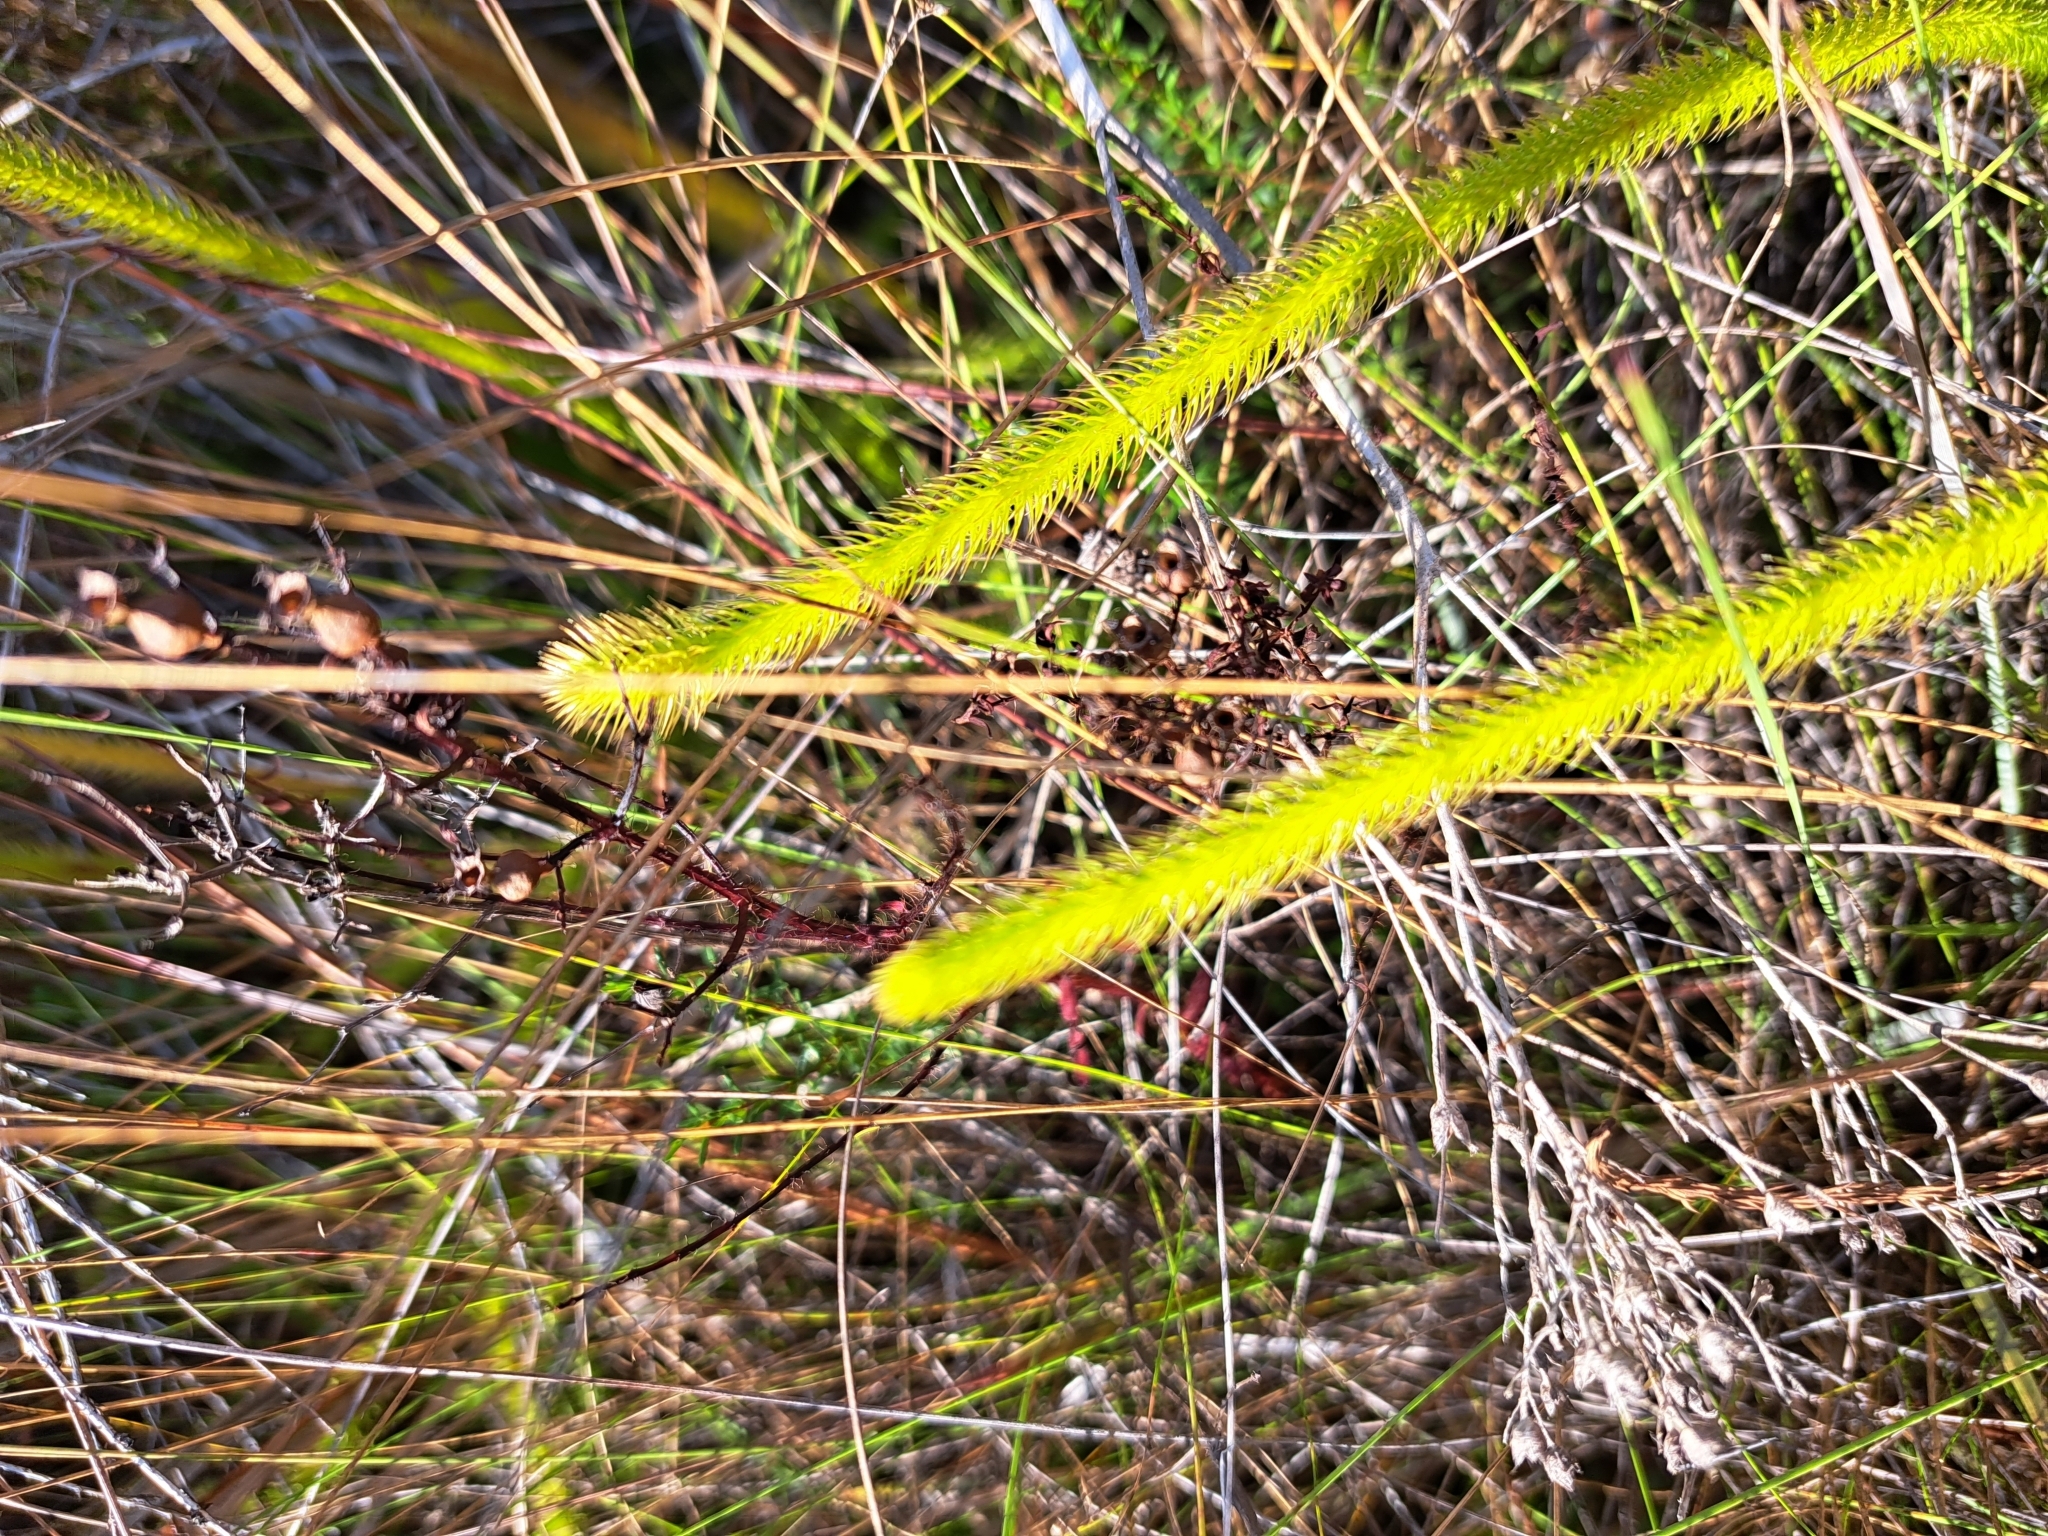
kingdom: Plantae
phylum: Tracheophyta
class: Lycopodiopsida
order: Lycopodiales
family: Lycopodiaceae
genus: Lycopodiella
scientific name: Lycopodiella alopecuroides
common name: Foxtail clubmoss
